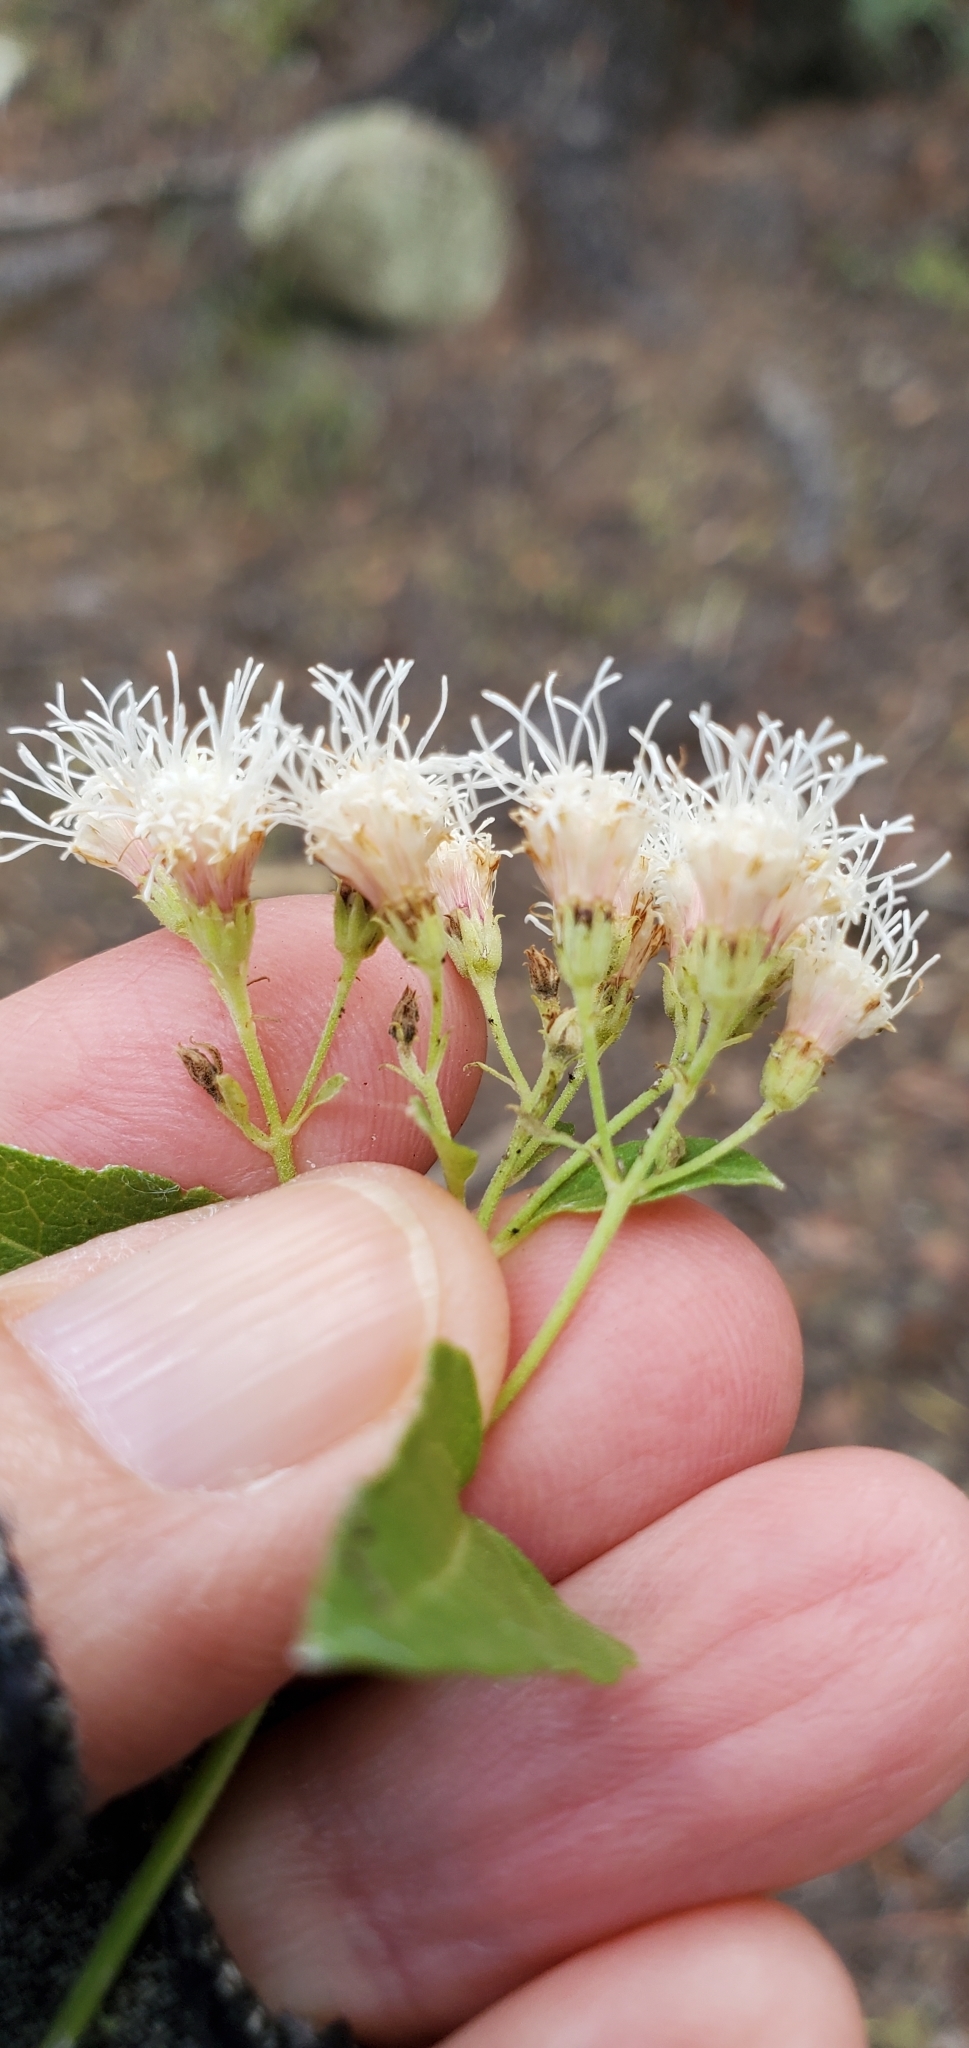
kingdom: Plantae
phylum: Tracheophyta
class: Magnoliopsida
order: Asterales
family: Asteraceae
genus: Ageratina
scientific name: Ageratina herbacea
